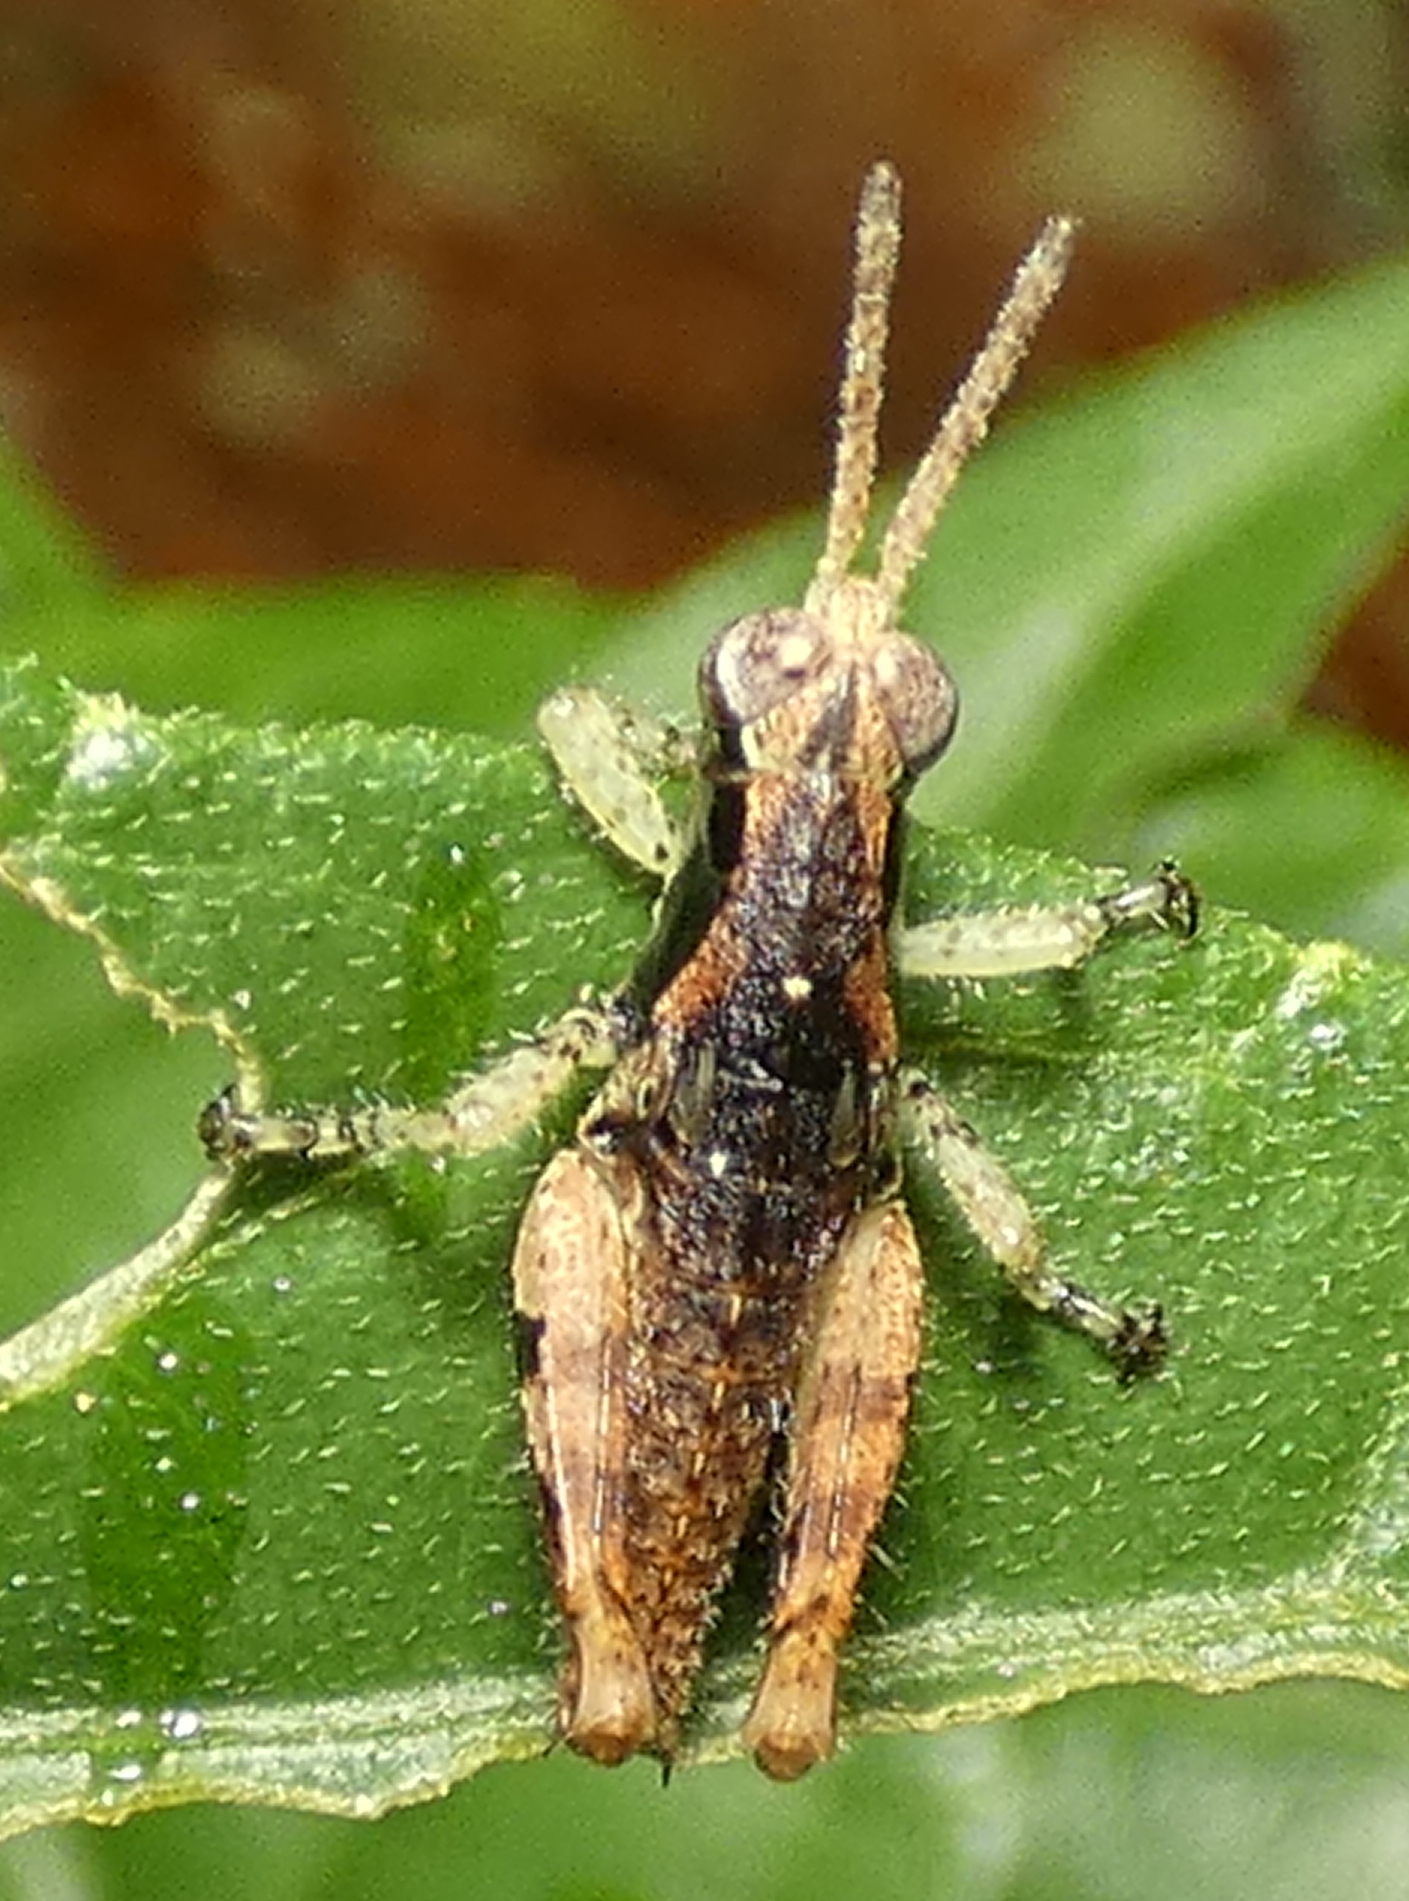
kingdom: Animalia
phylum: Arthropoda
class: Insecta
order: Orthoptera
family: Acrididae
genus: Eujivarus
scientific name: Eujivarus meridionalis
